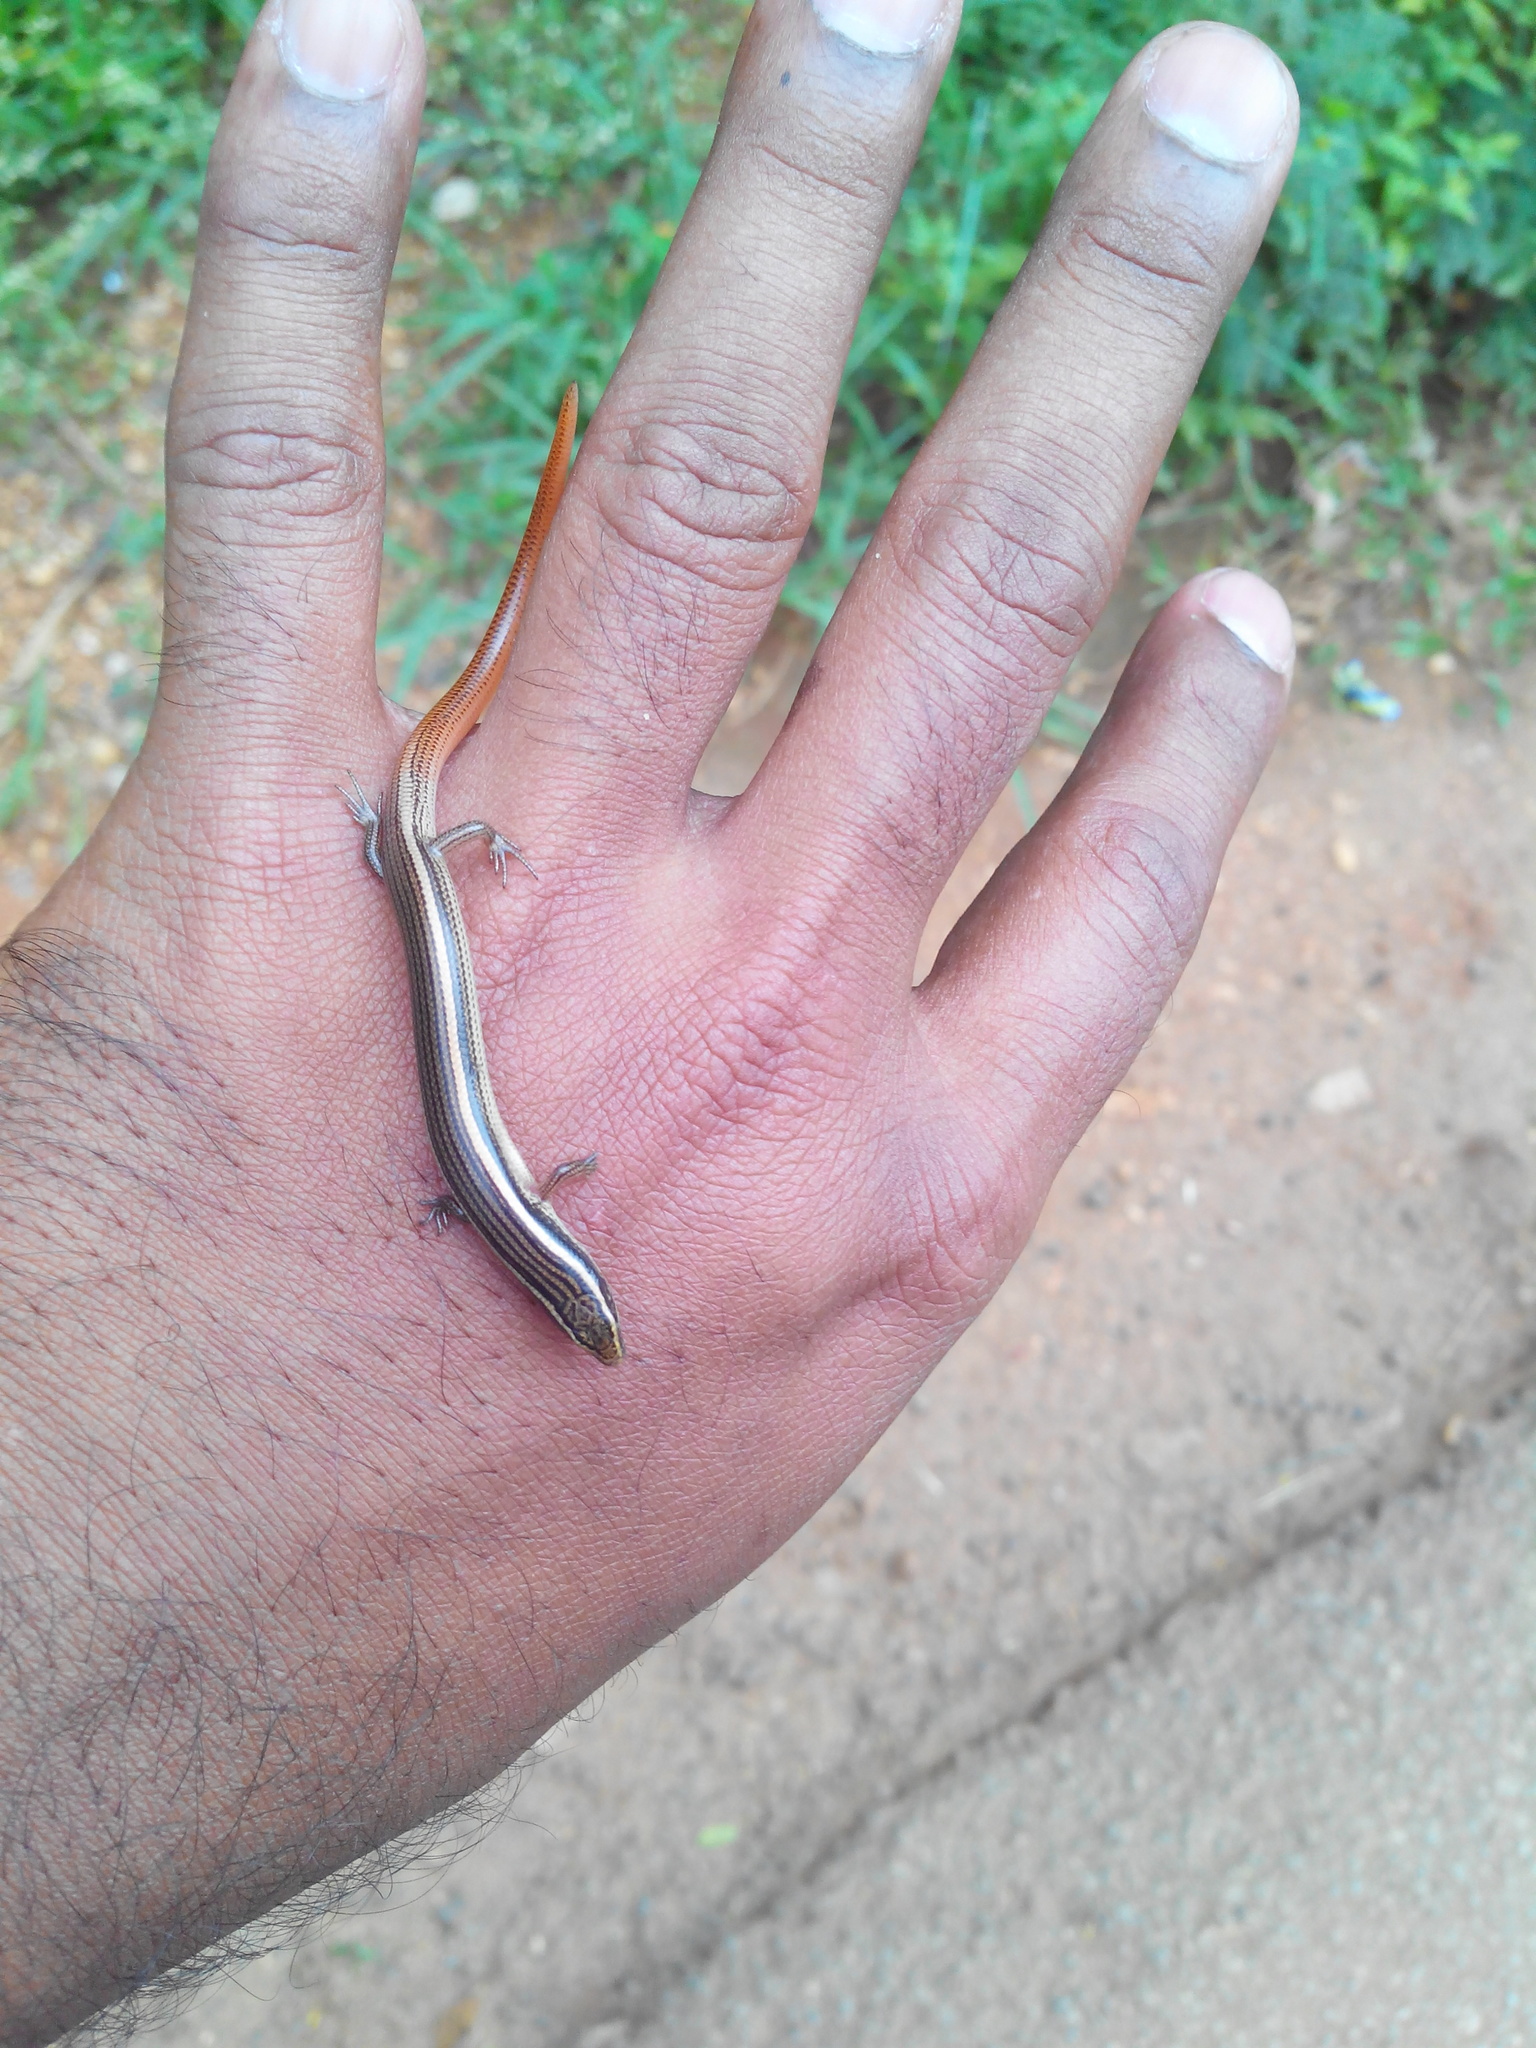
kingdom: Animalia
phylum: Chordata
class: Squamata
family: Scincidae
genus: Riopa
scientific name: Riopa punctata
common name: Common dotted garden skink
